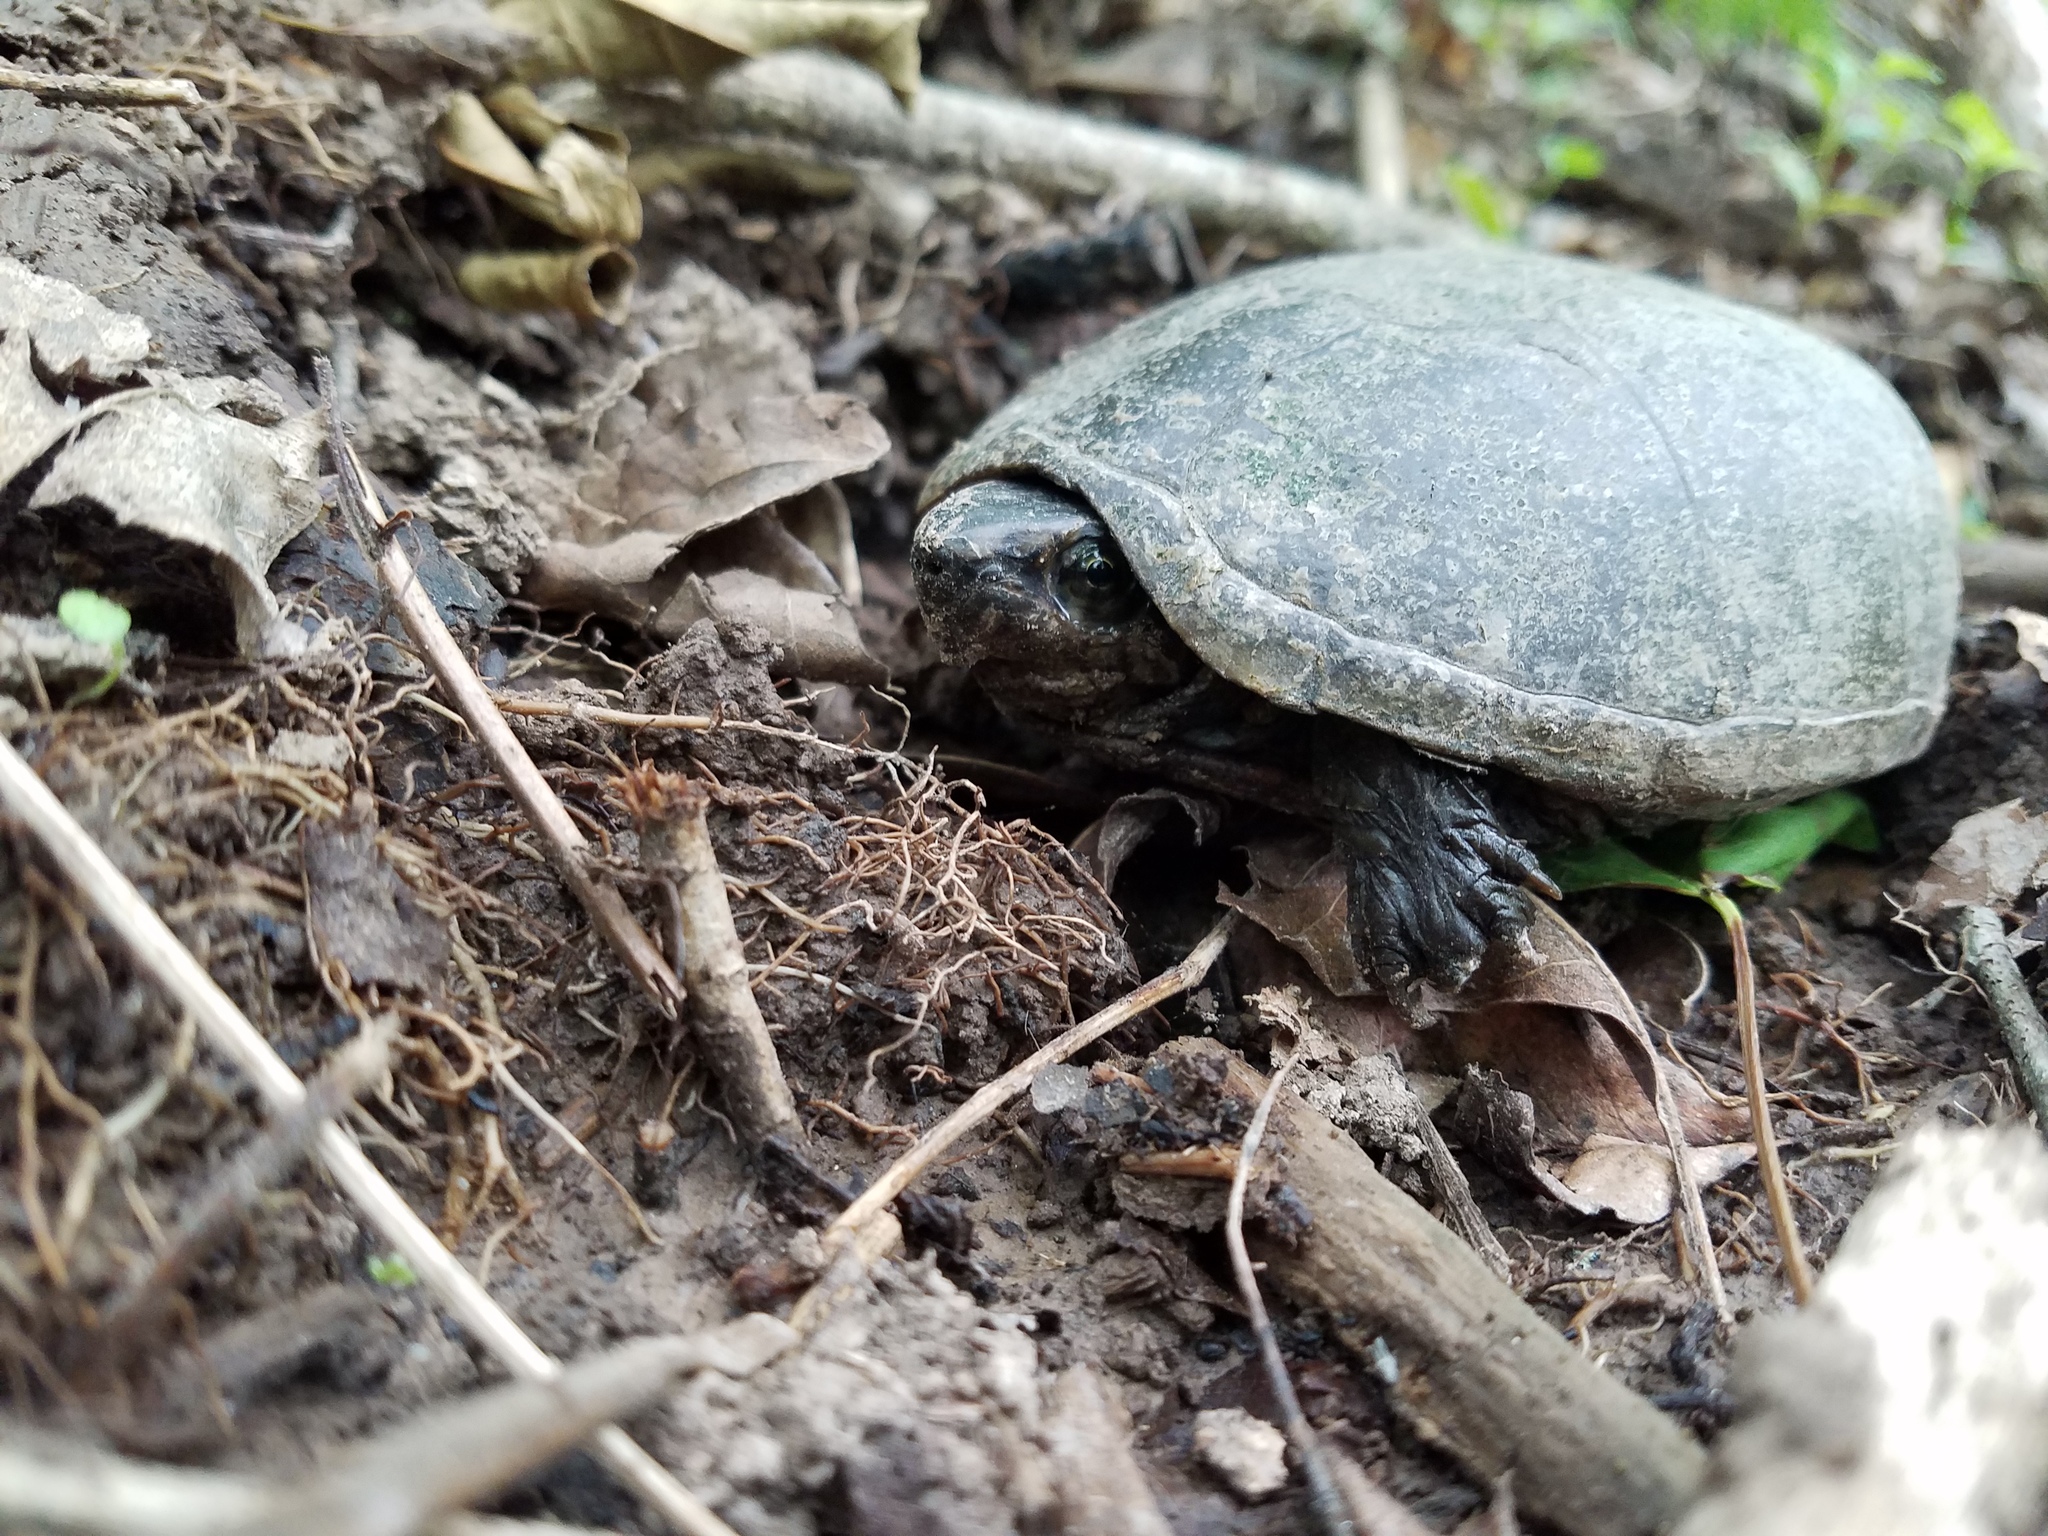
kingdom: Animalia
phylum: Chordata
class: Testudines
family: Kinosternidae
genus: Kinosternon
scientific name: Kinosternon subrubrum
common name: Eastern mud turtle
